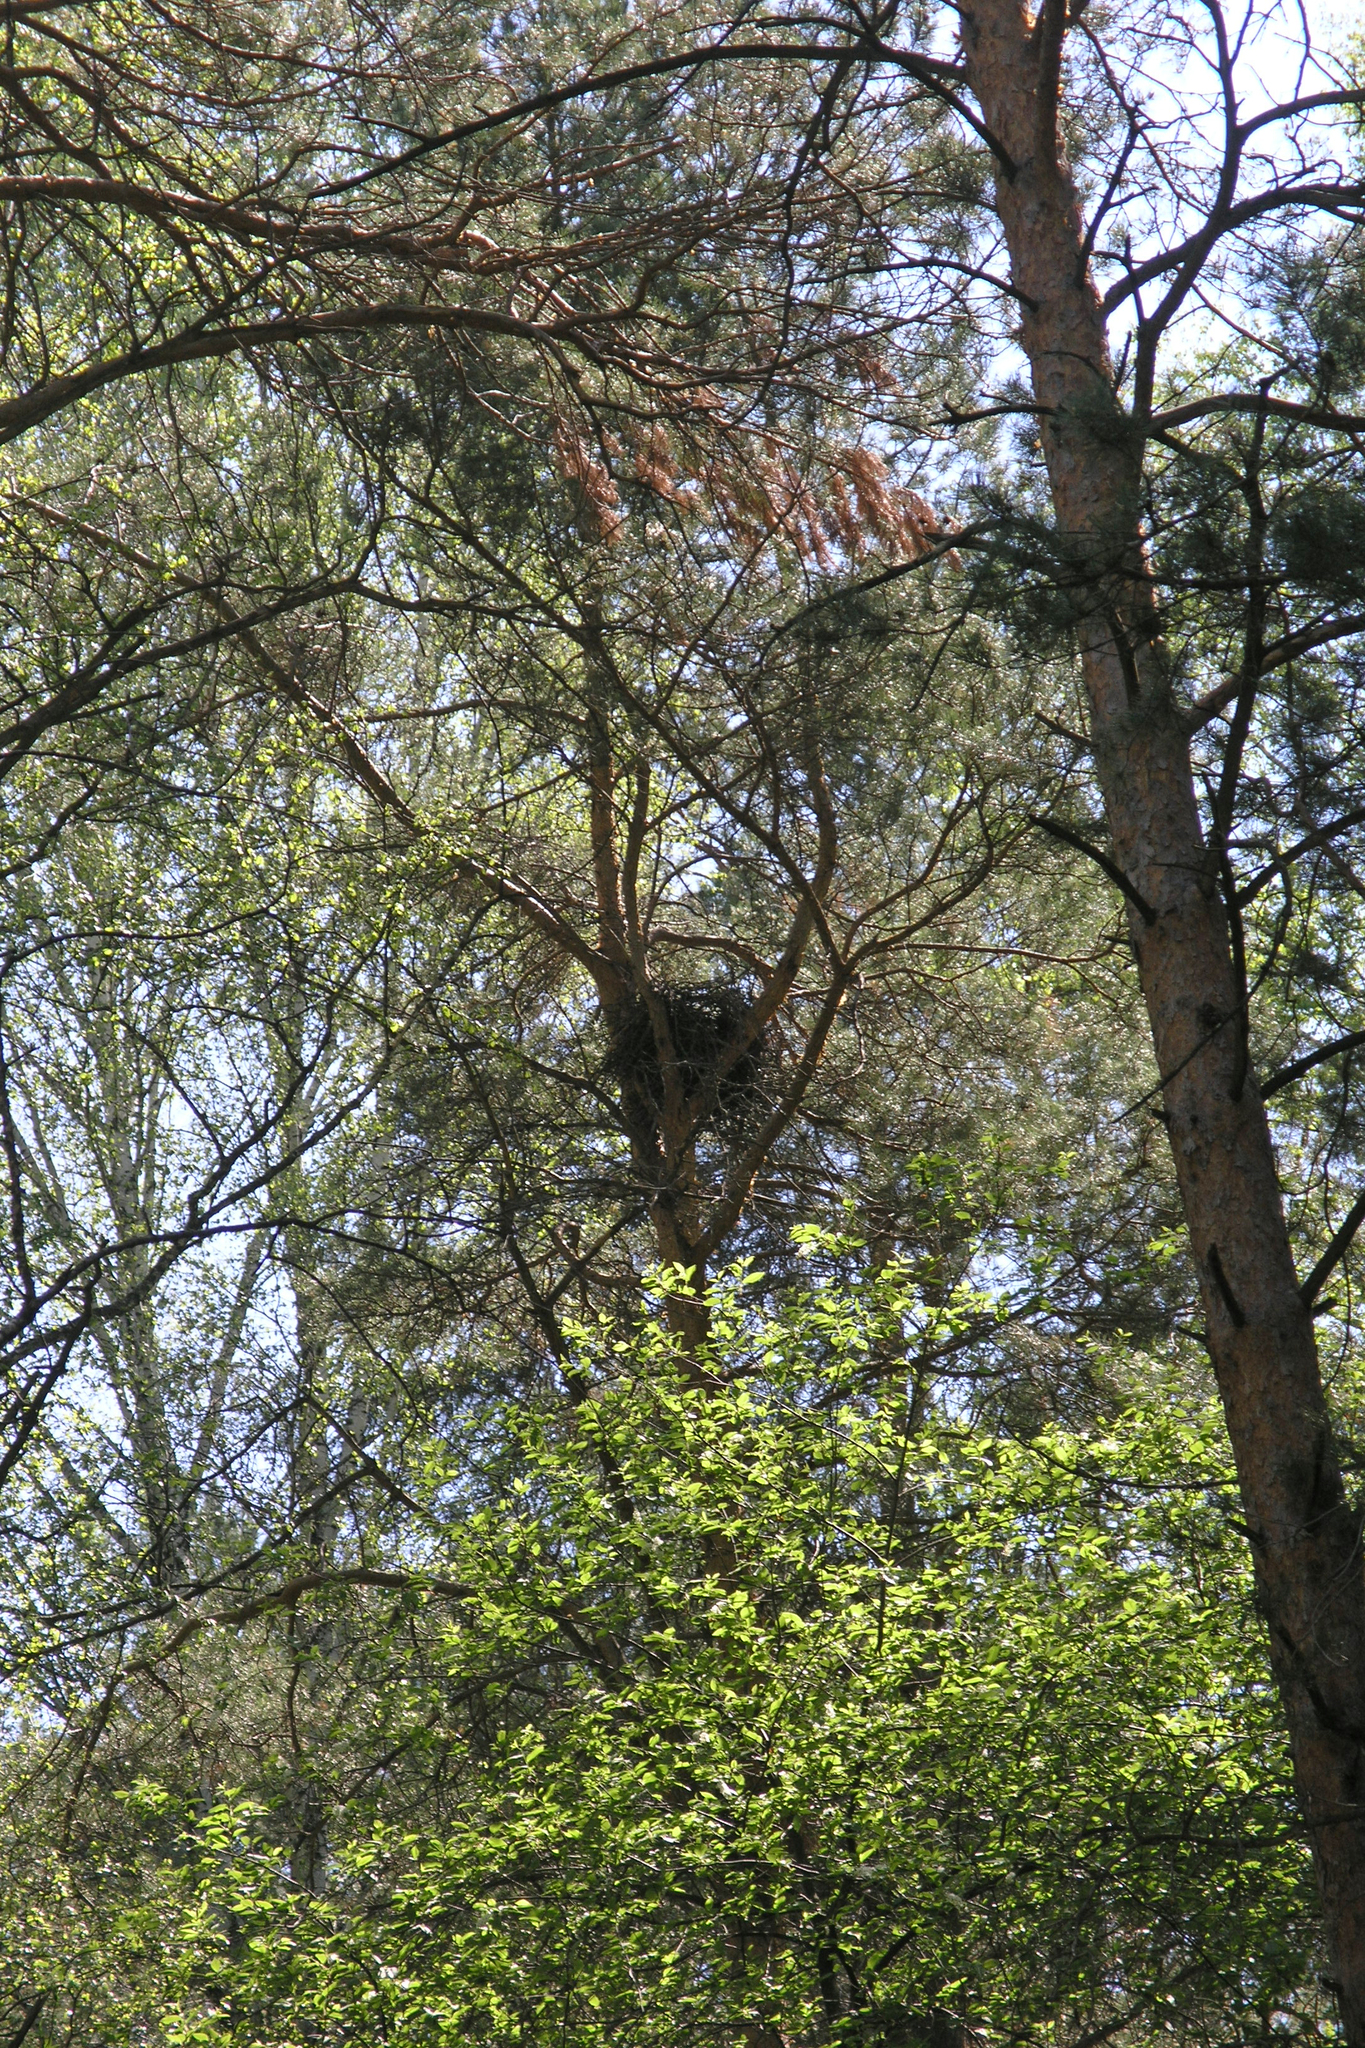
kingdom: Plantae
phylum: Tracheophyta
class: Pinopsida
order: Pinales
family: Pinaceae
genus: Pinus
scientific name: Pinus sylvestris
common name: Scots pine
